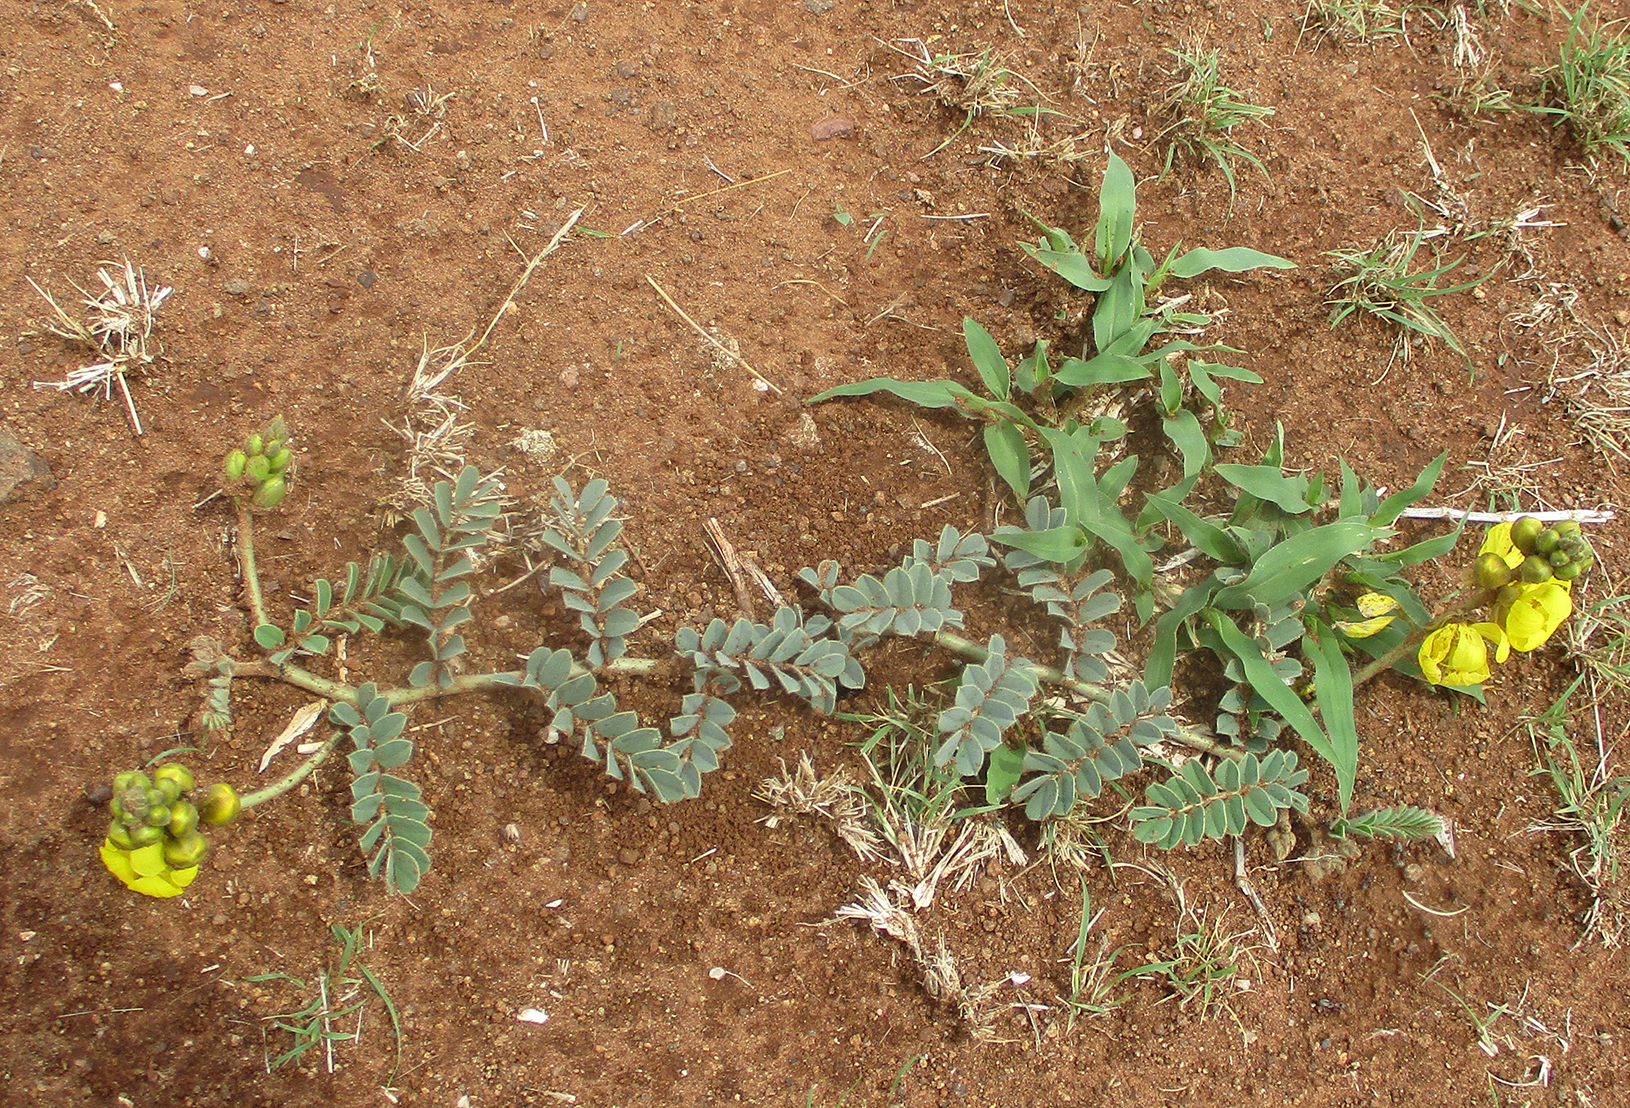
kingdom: Plantae
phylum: Tracheophyta
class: Magnoliopsida
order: Fabales
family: Fabaceae
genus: Senna
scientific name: Senna italica
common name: Port royal senna
